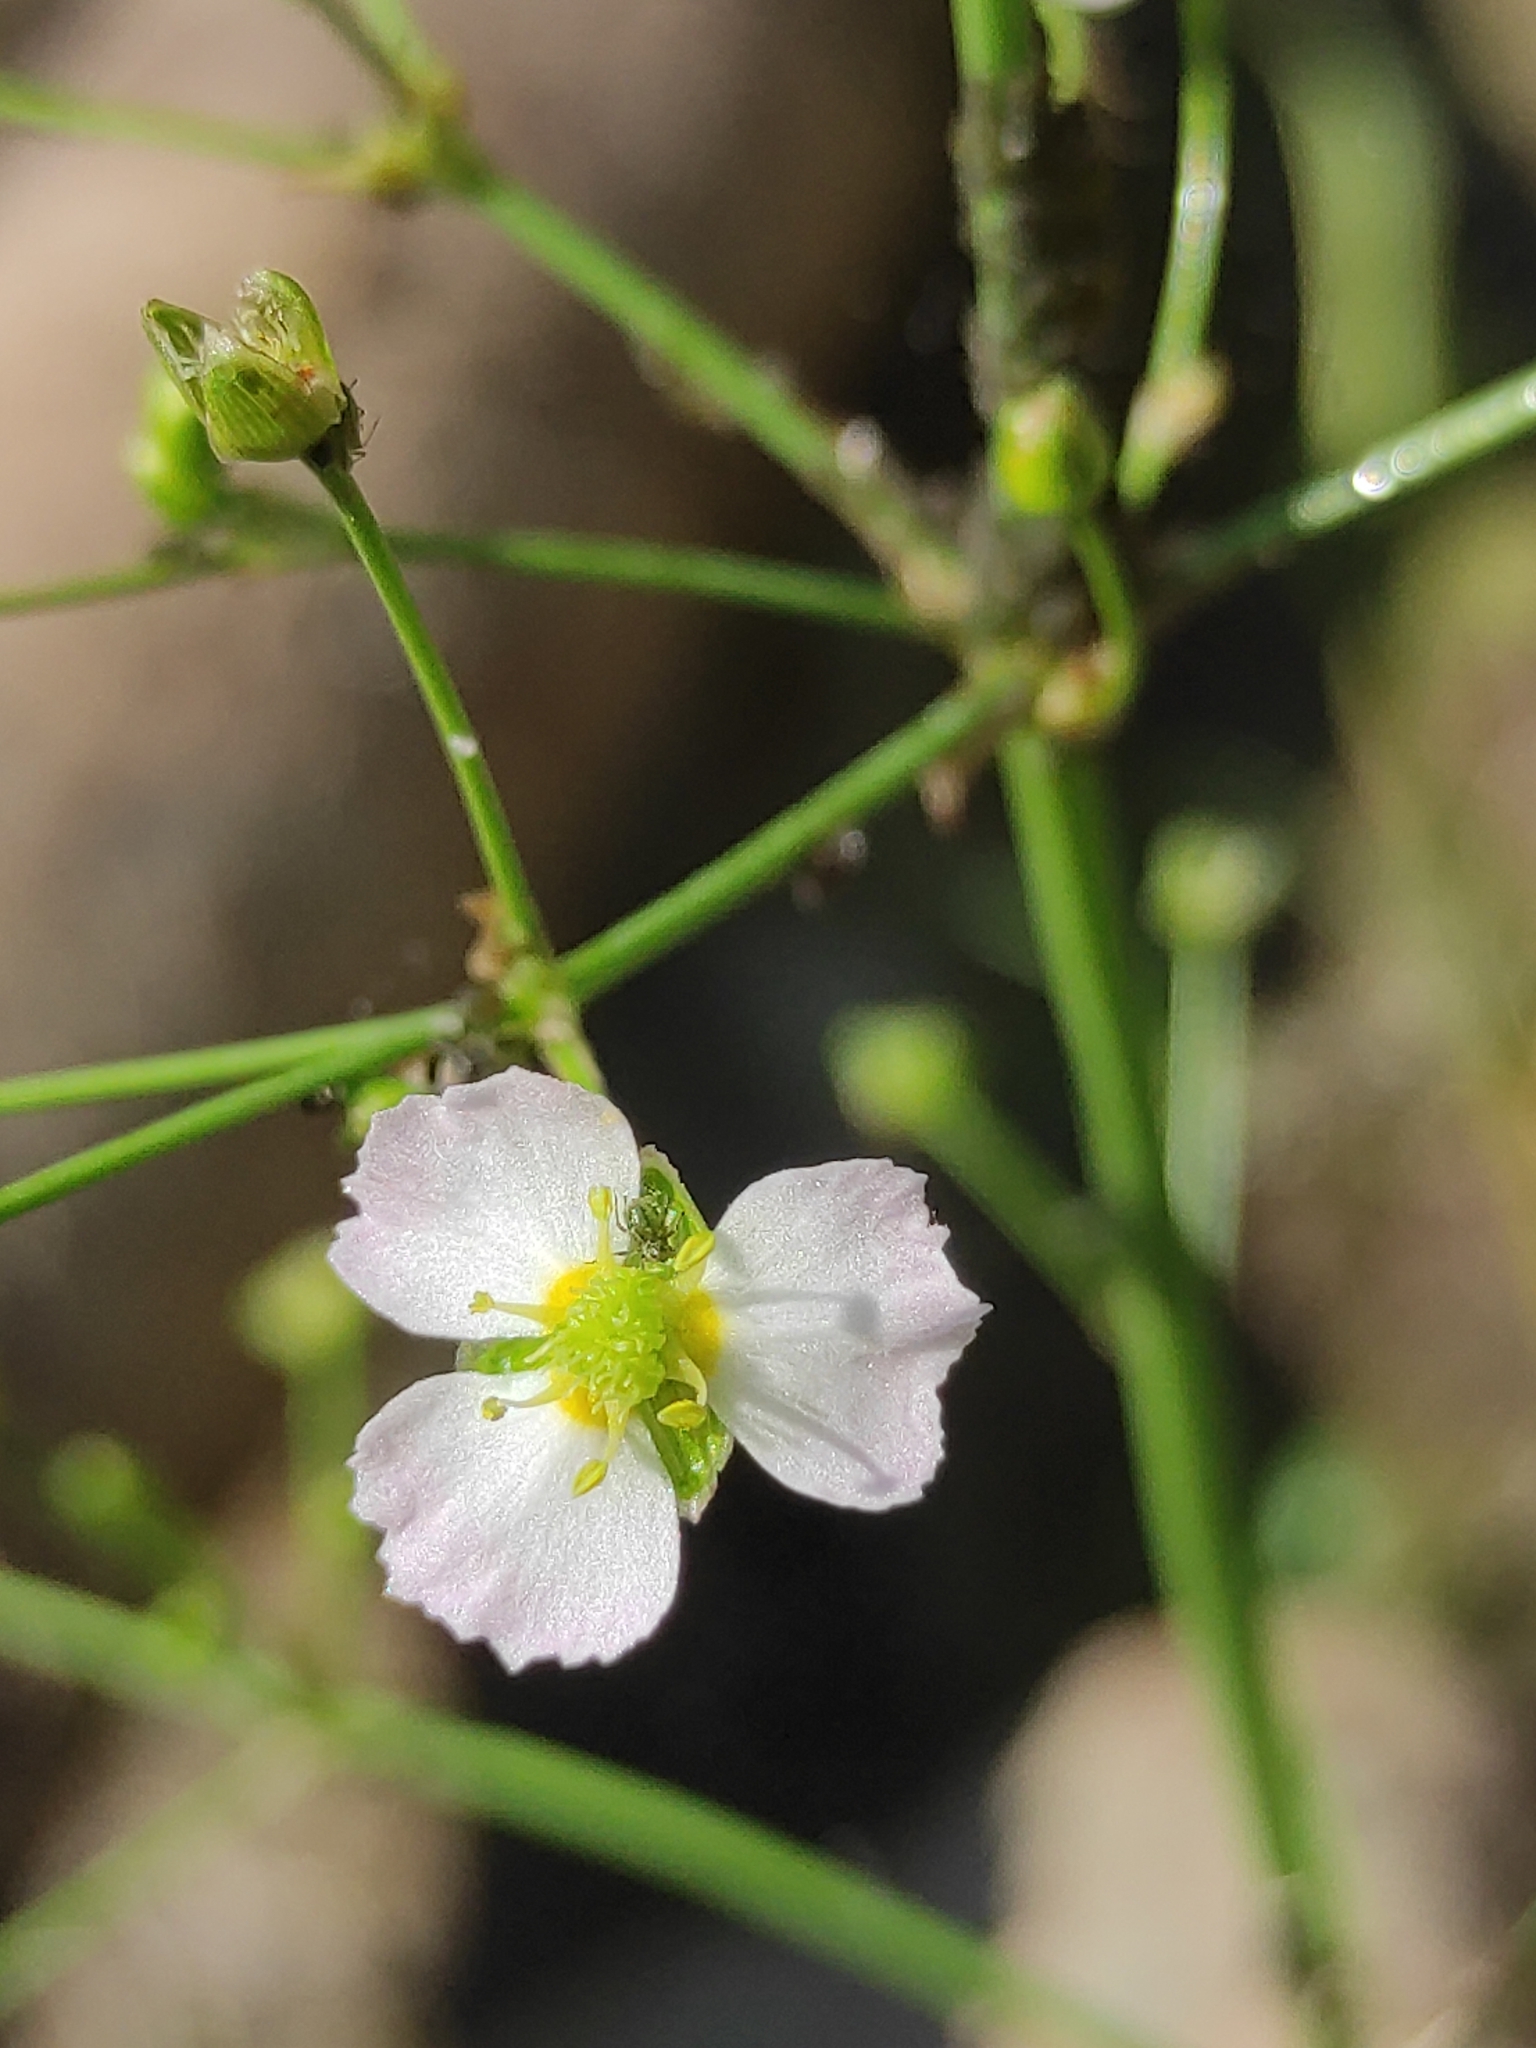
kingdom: Plantae
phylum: Tracheophyta
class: Liliopsida
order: Alismatales
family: Alismataceae
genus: Alisma
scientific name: Alisma plantago-aquatica
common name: Water-plantain
